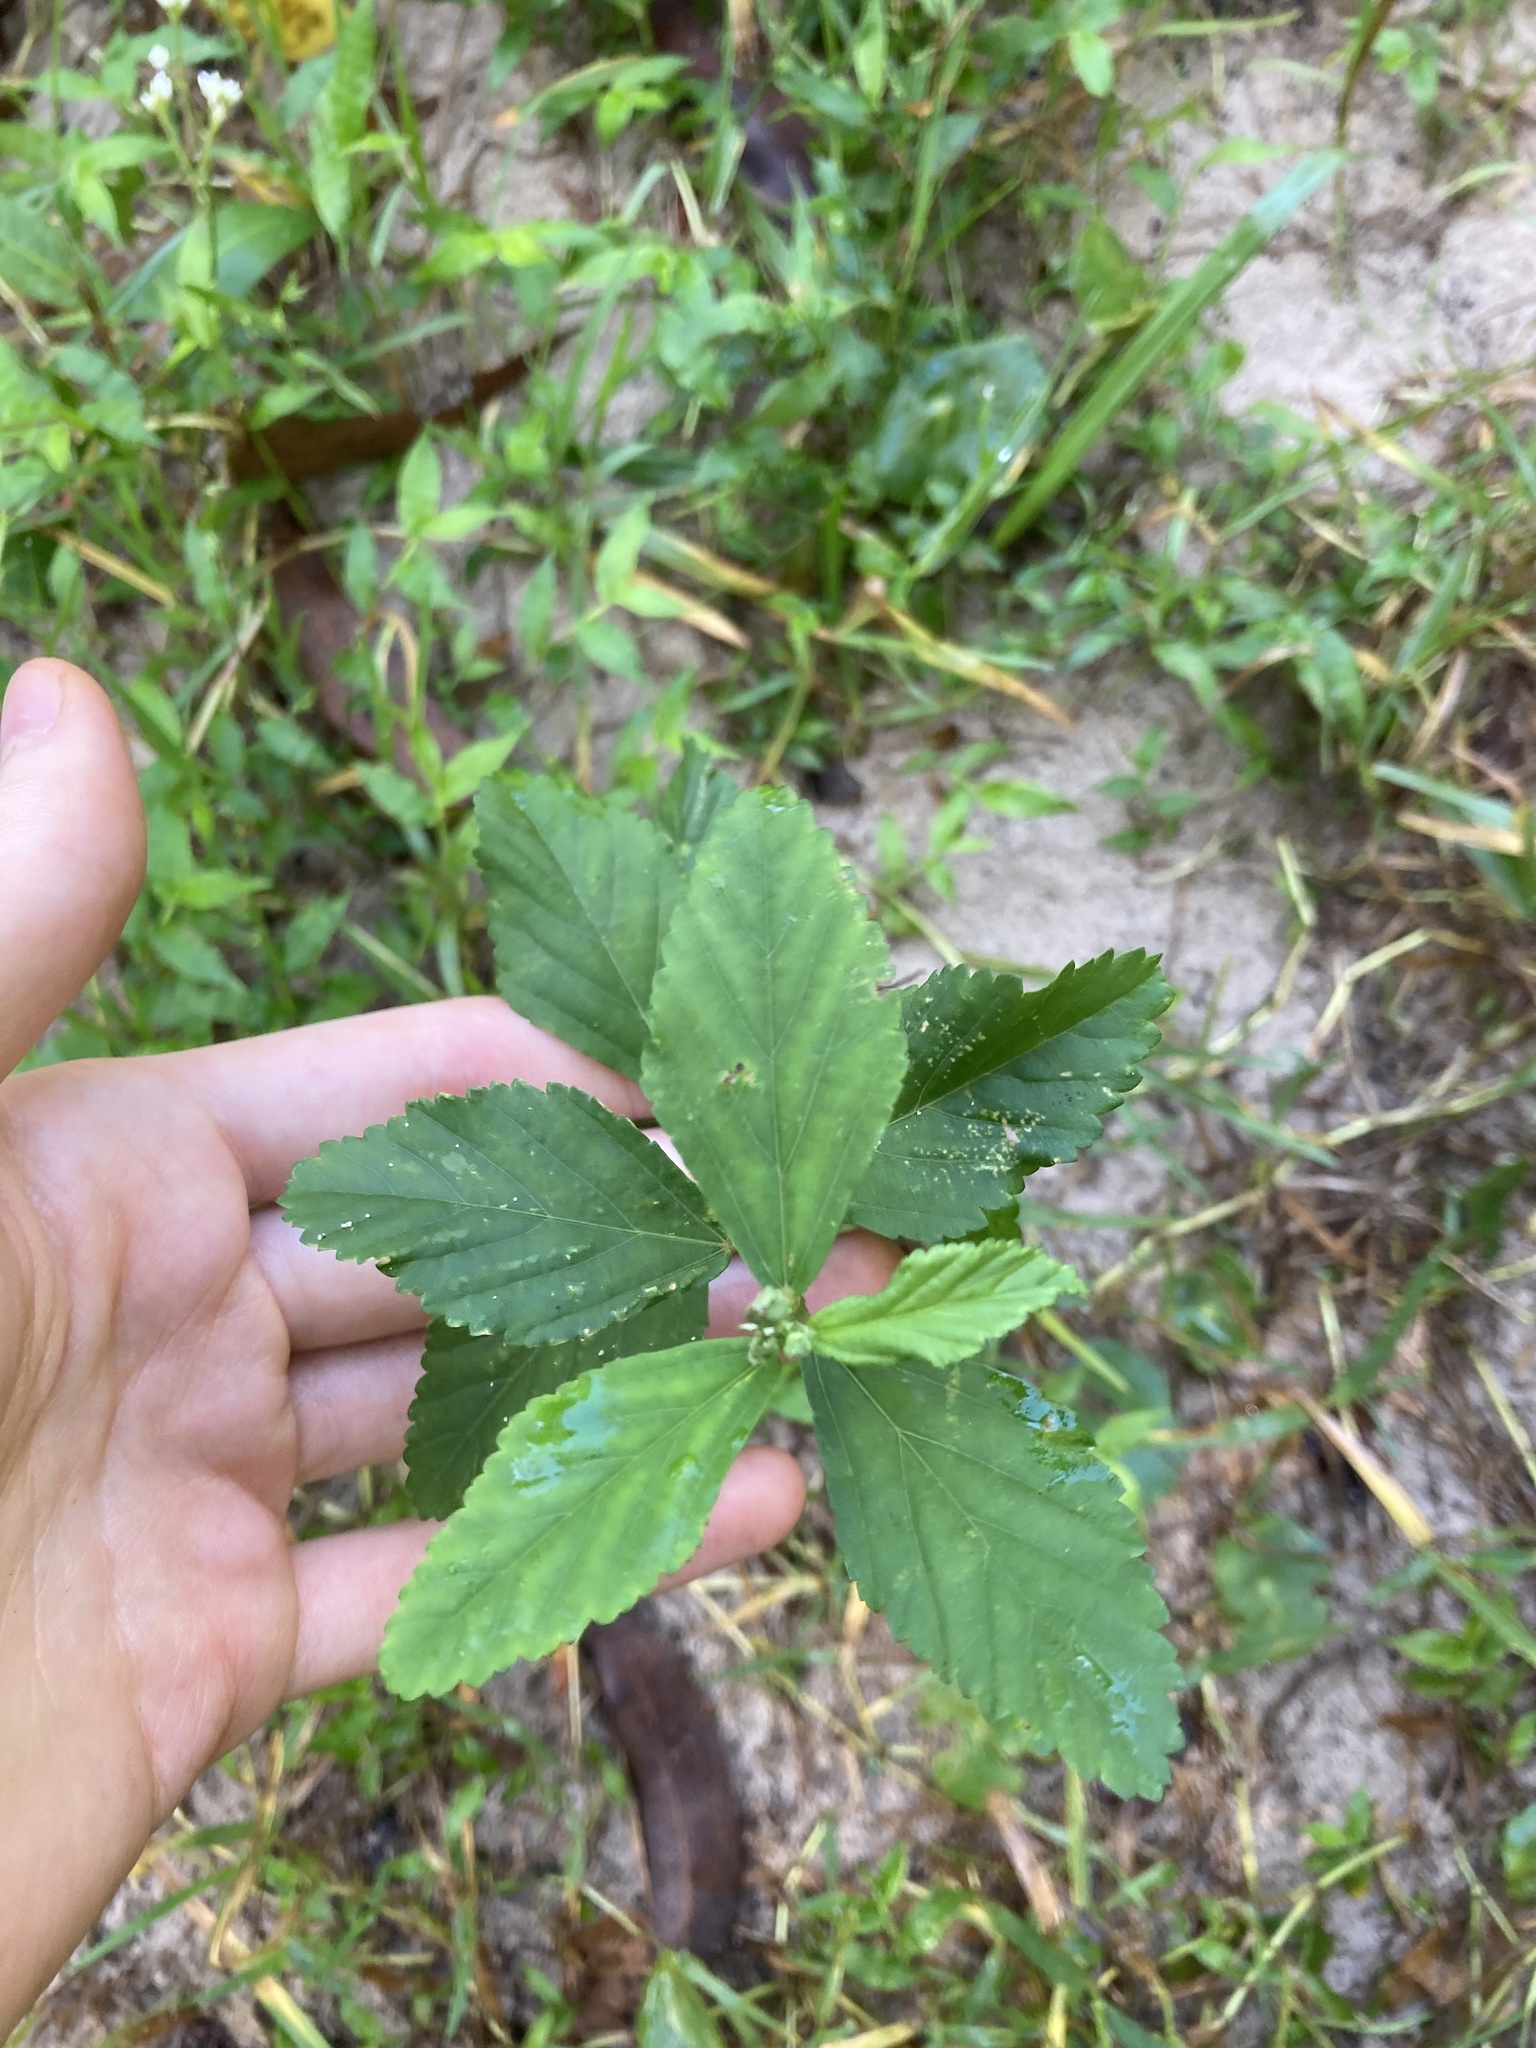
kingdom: Plantae
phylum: Tracheophyta
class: Magnoliopsida
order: Malvales
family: Malvaceae
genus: Sida
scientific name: Sida rhombifolia
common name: Queensland-hemp
